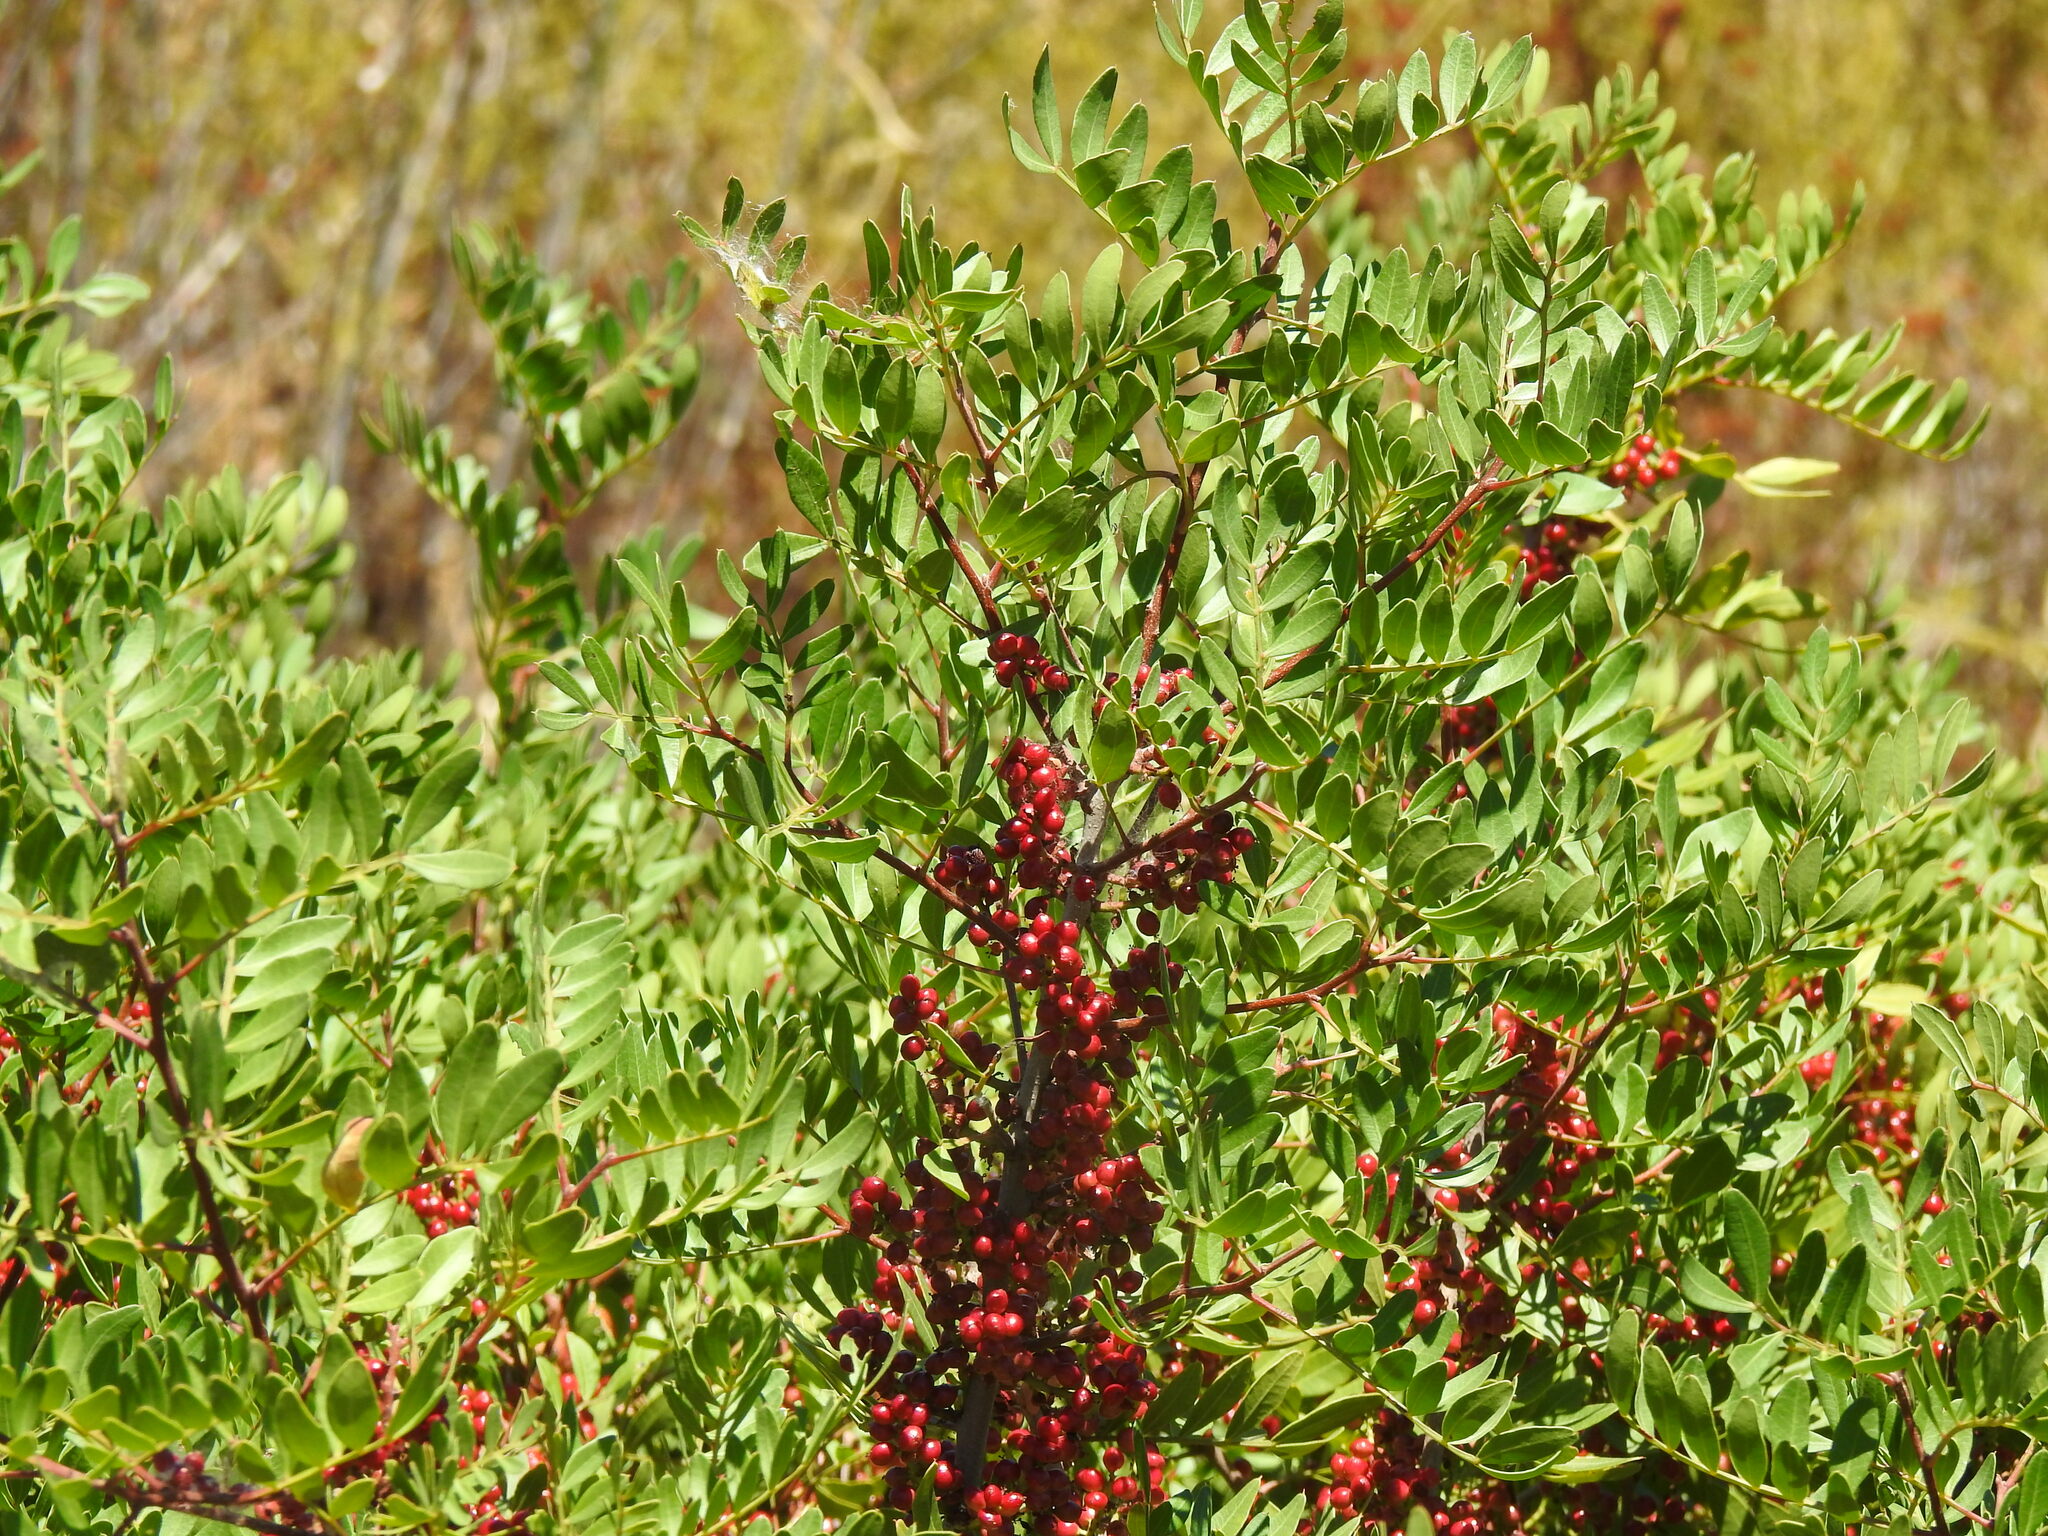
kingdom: Plantae
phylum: Tracheophyta
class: Magnoliopsida
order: Sapindales
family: Anacardiaceae
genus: Pistacia
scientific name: Pistacia lentiscus
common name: Lentisk
